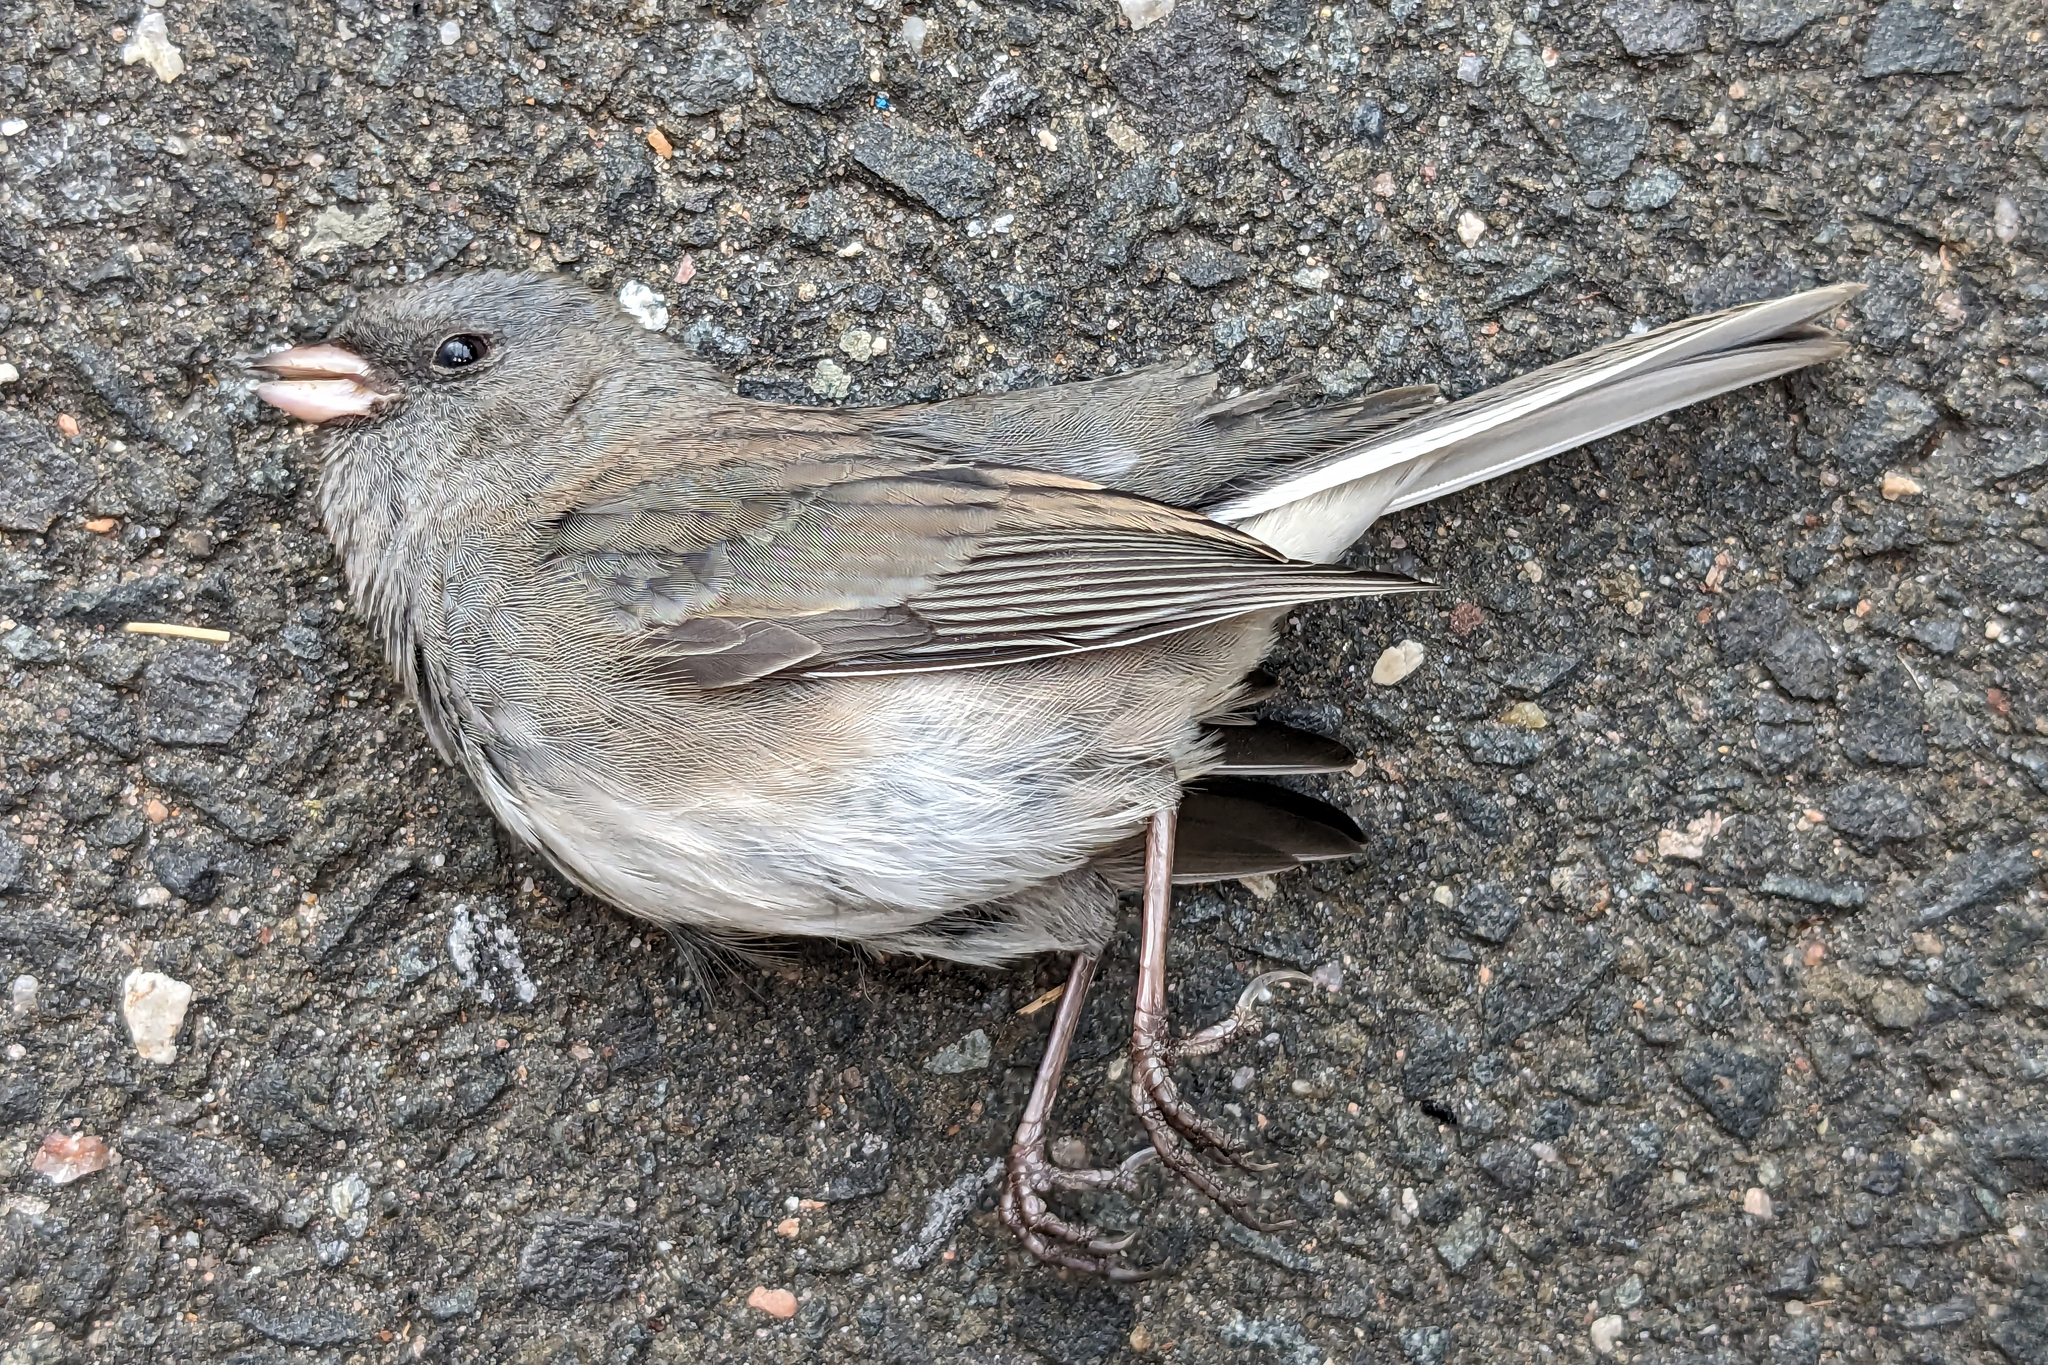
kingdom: Animalia
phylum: Chordata
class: Aves
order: Passeriformes
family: Passerellidae
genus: Junco
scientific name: Junco hyemalis
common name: Dark-eyed junco
